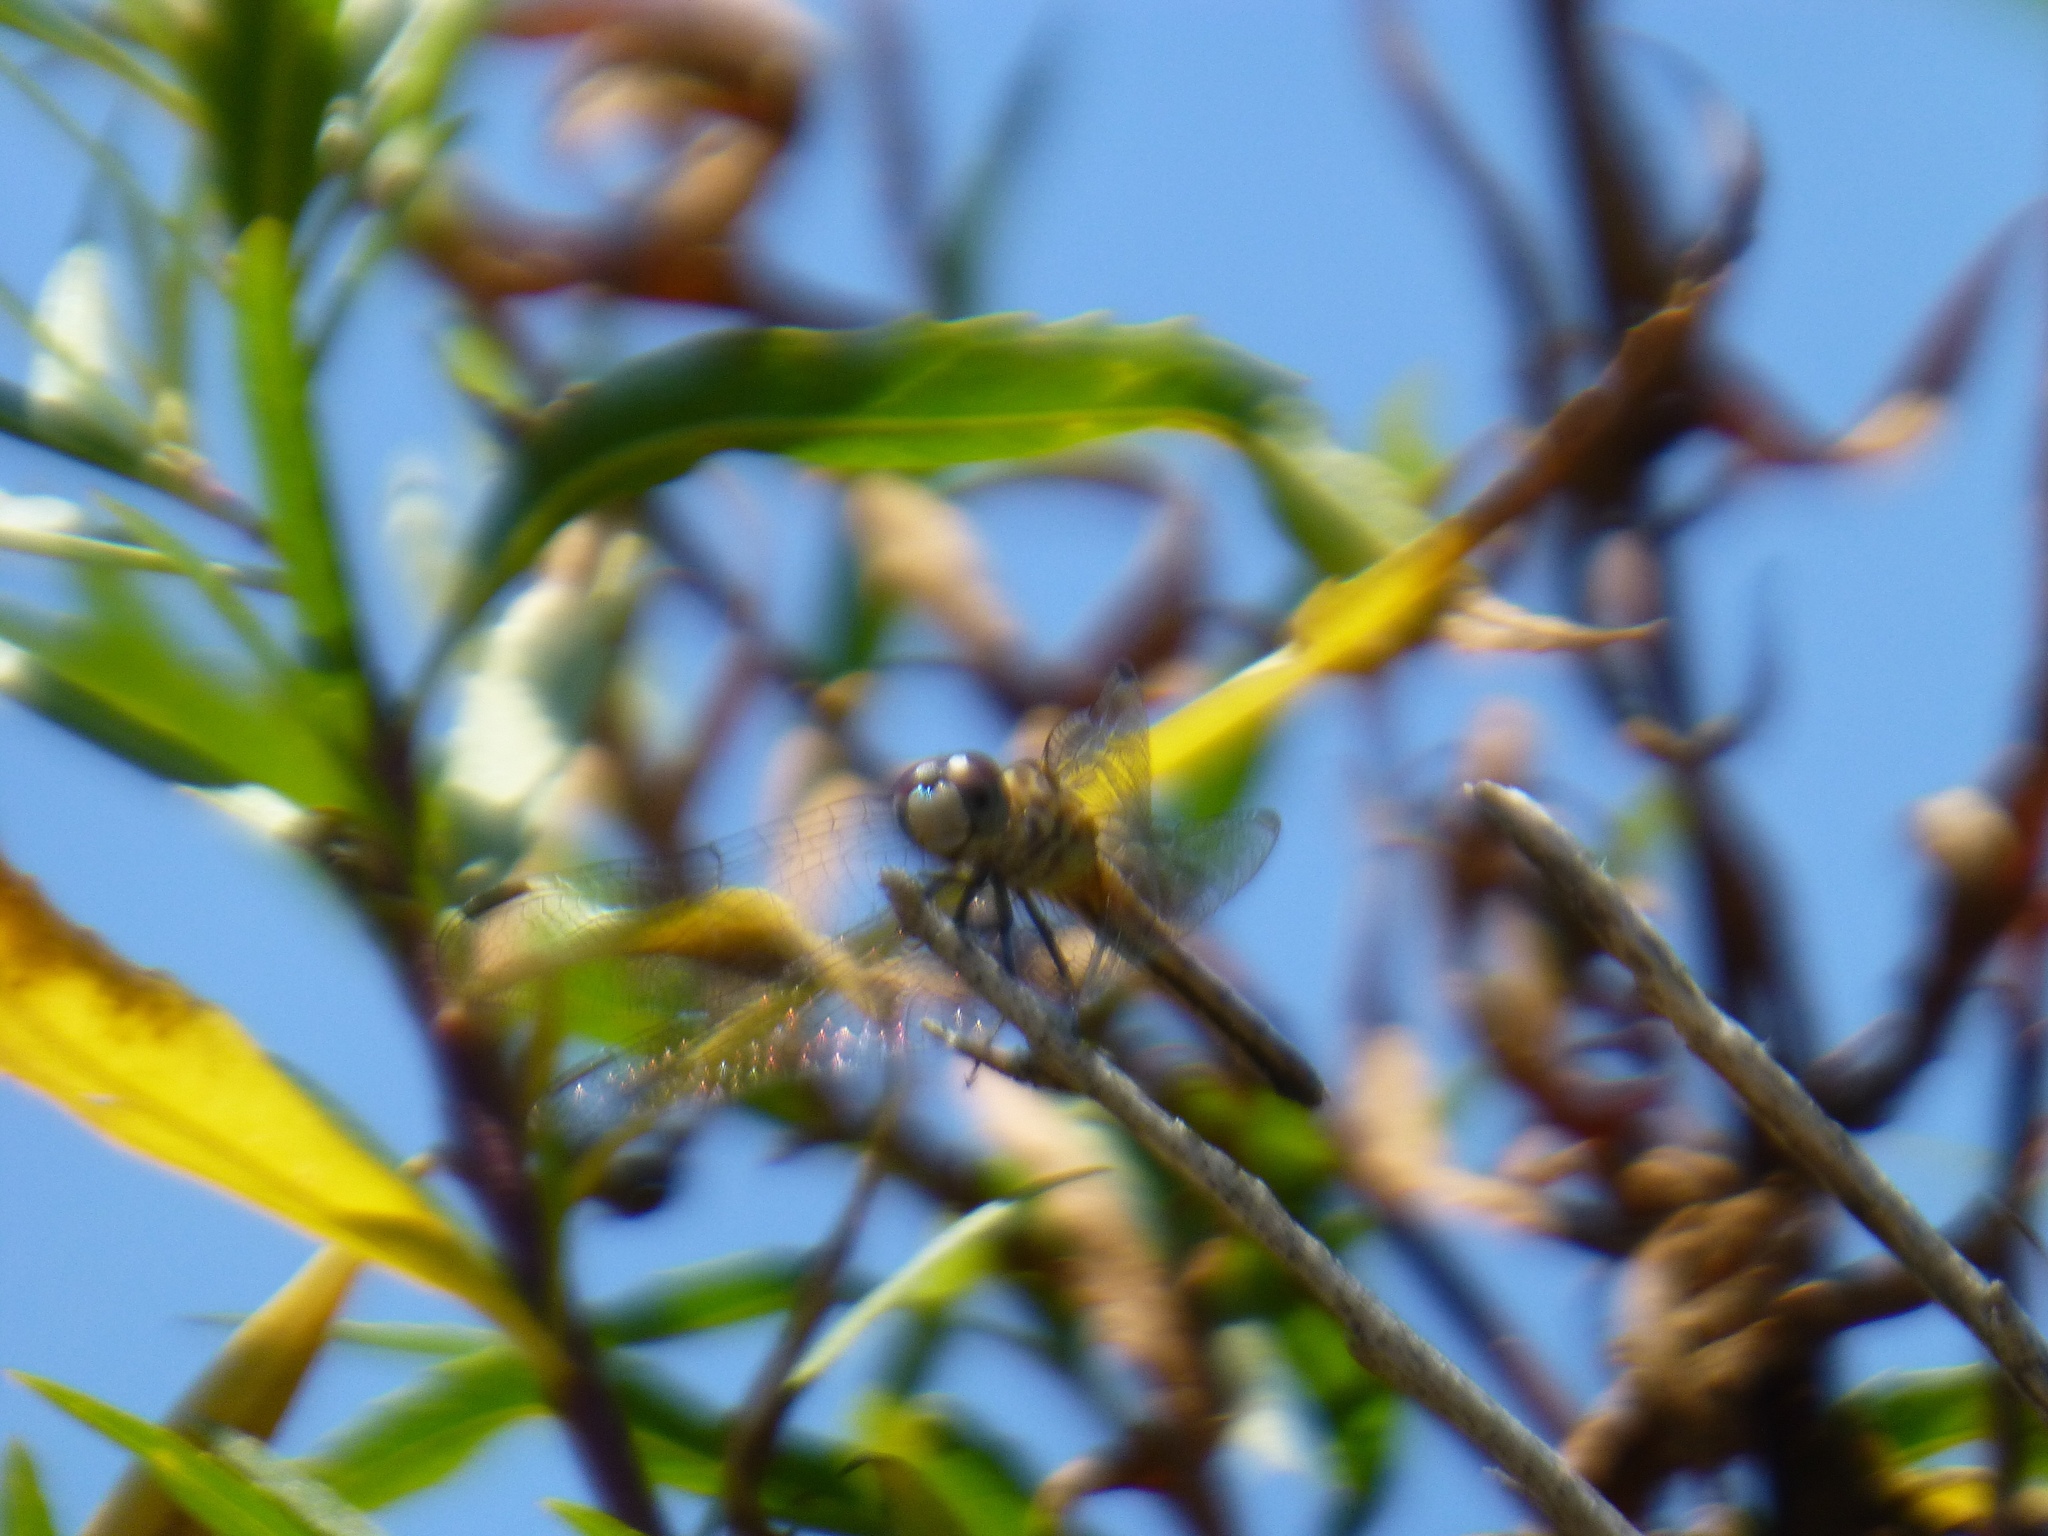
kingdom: Animalia
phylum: Arthropoda
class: Insecta
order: Odonata
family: Libellulidae
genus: Pachydiplax
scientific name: Pachydiplax longipennis
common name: Blue dasher
